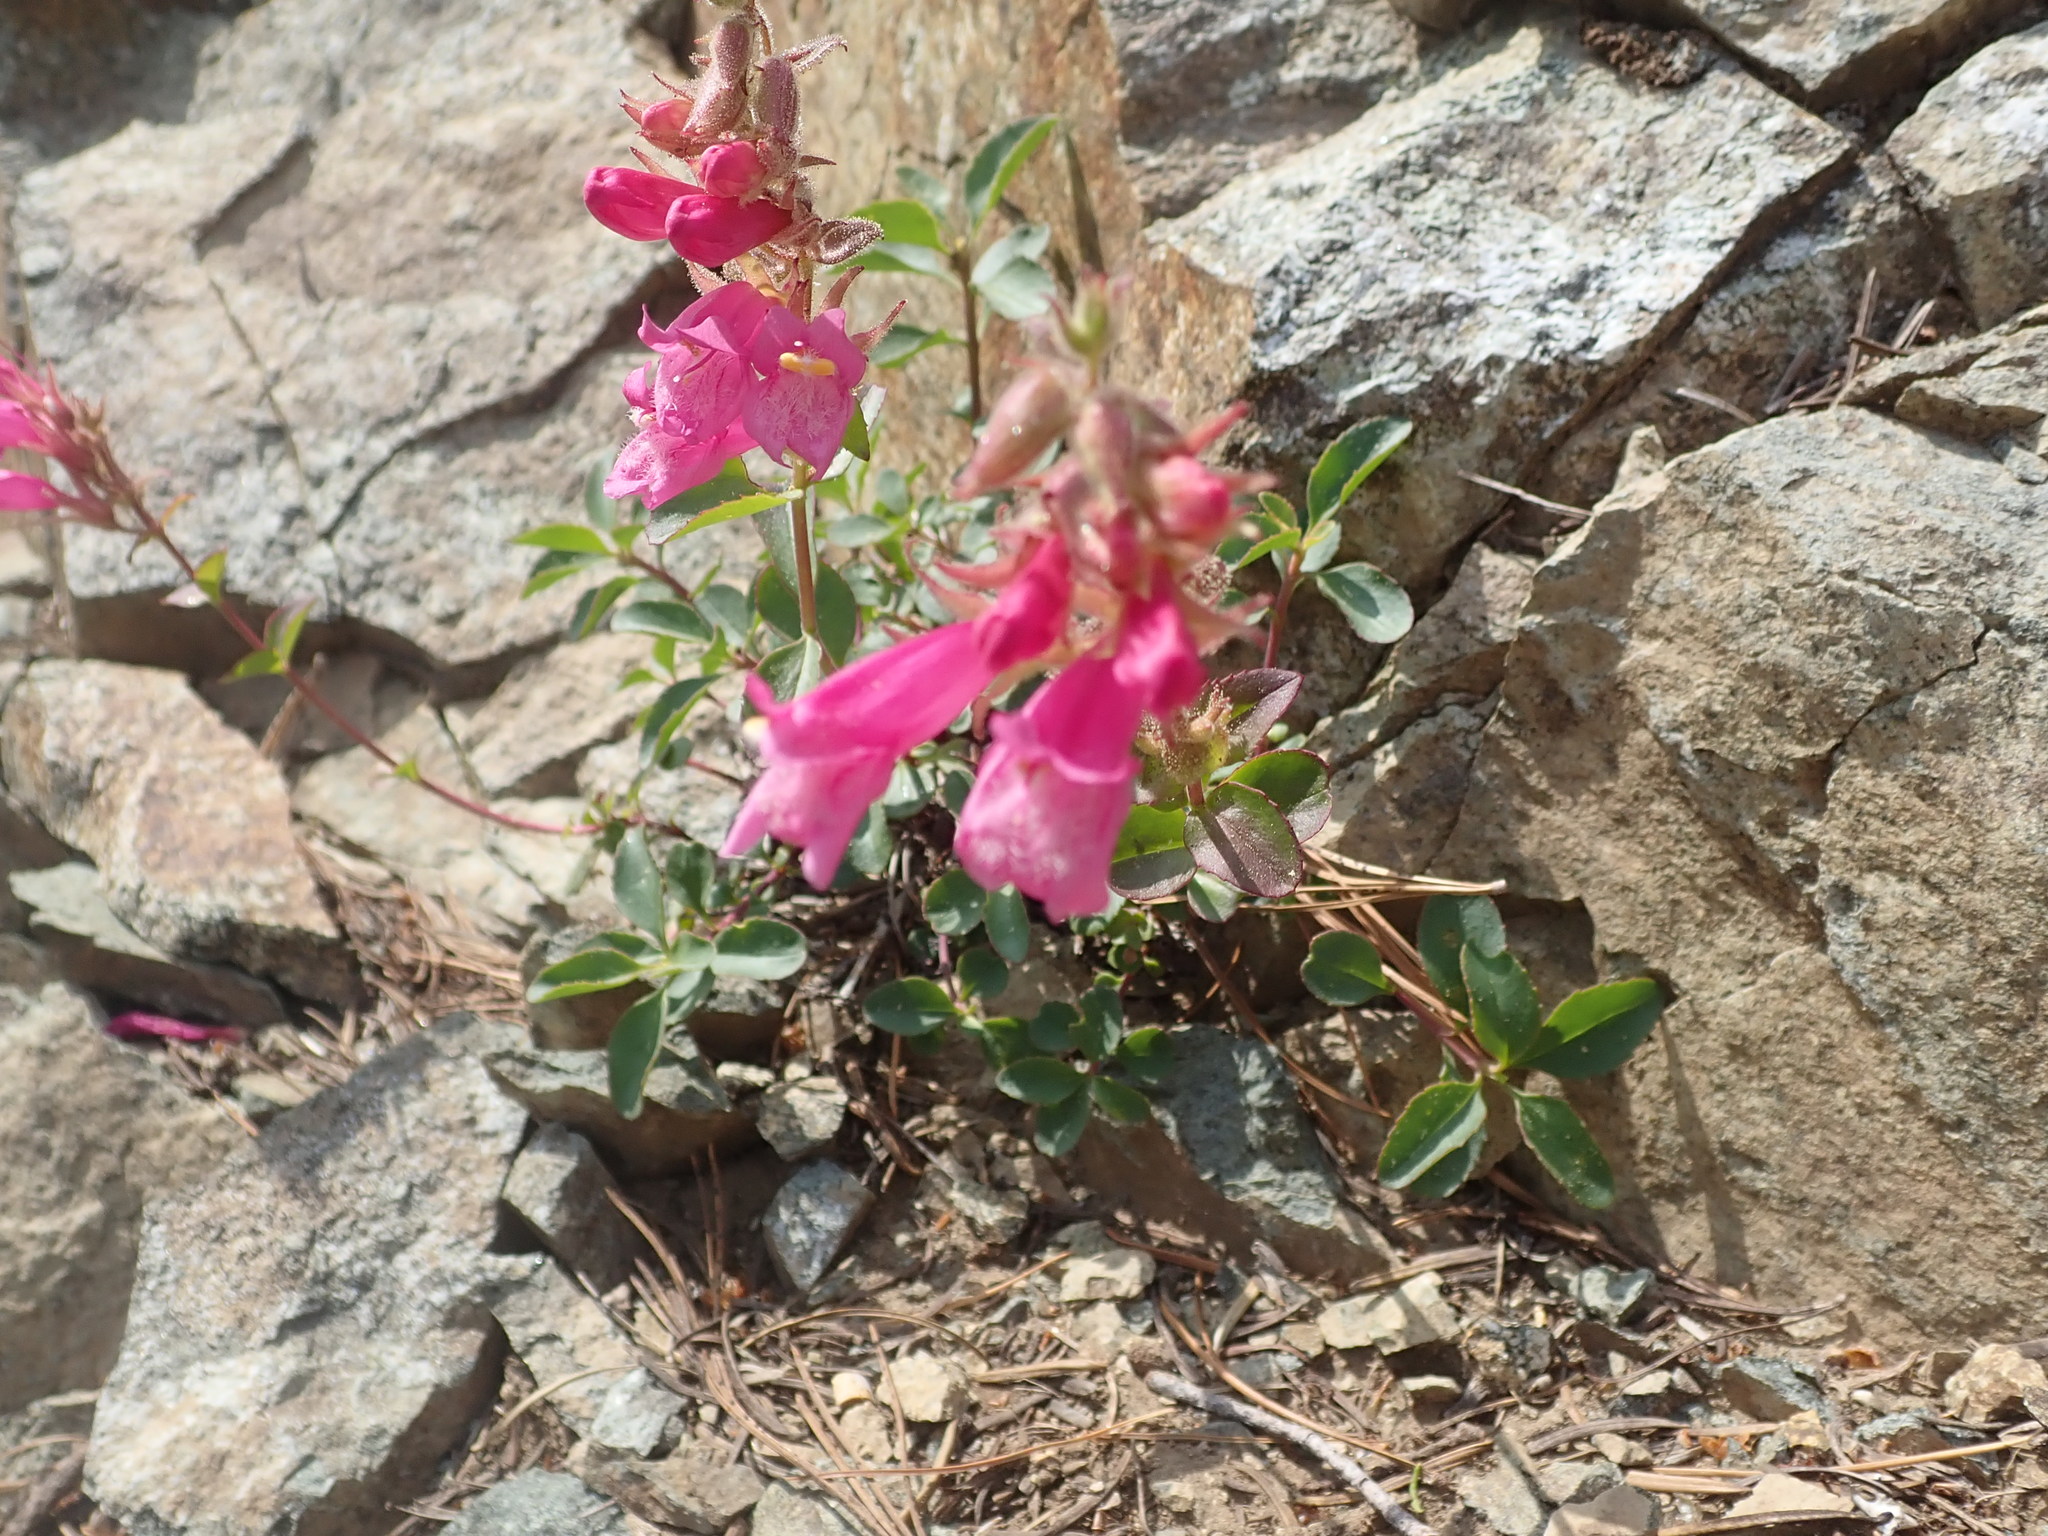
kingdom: Plantae
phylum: Tracheophyta
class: Magnoliopsida
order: Lamiales
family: Plantaginaceae
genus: Penstemon
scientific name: Penstemon newberryi
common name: Mountain-pride
